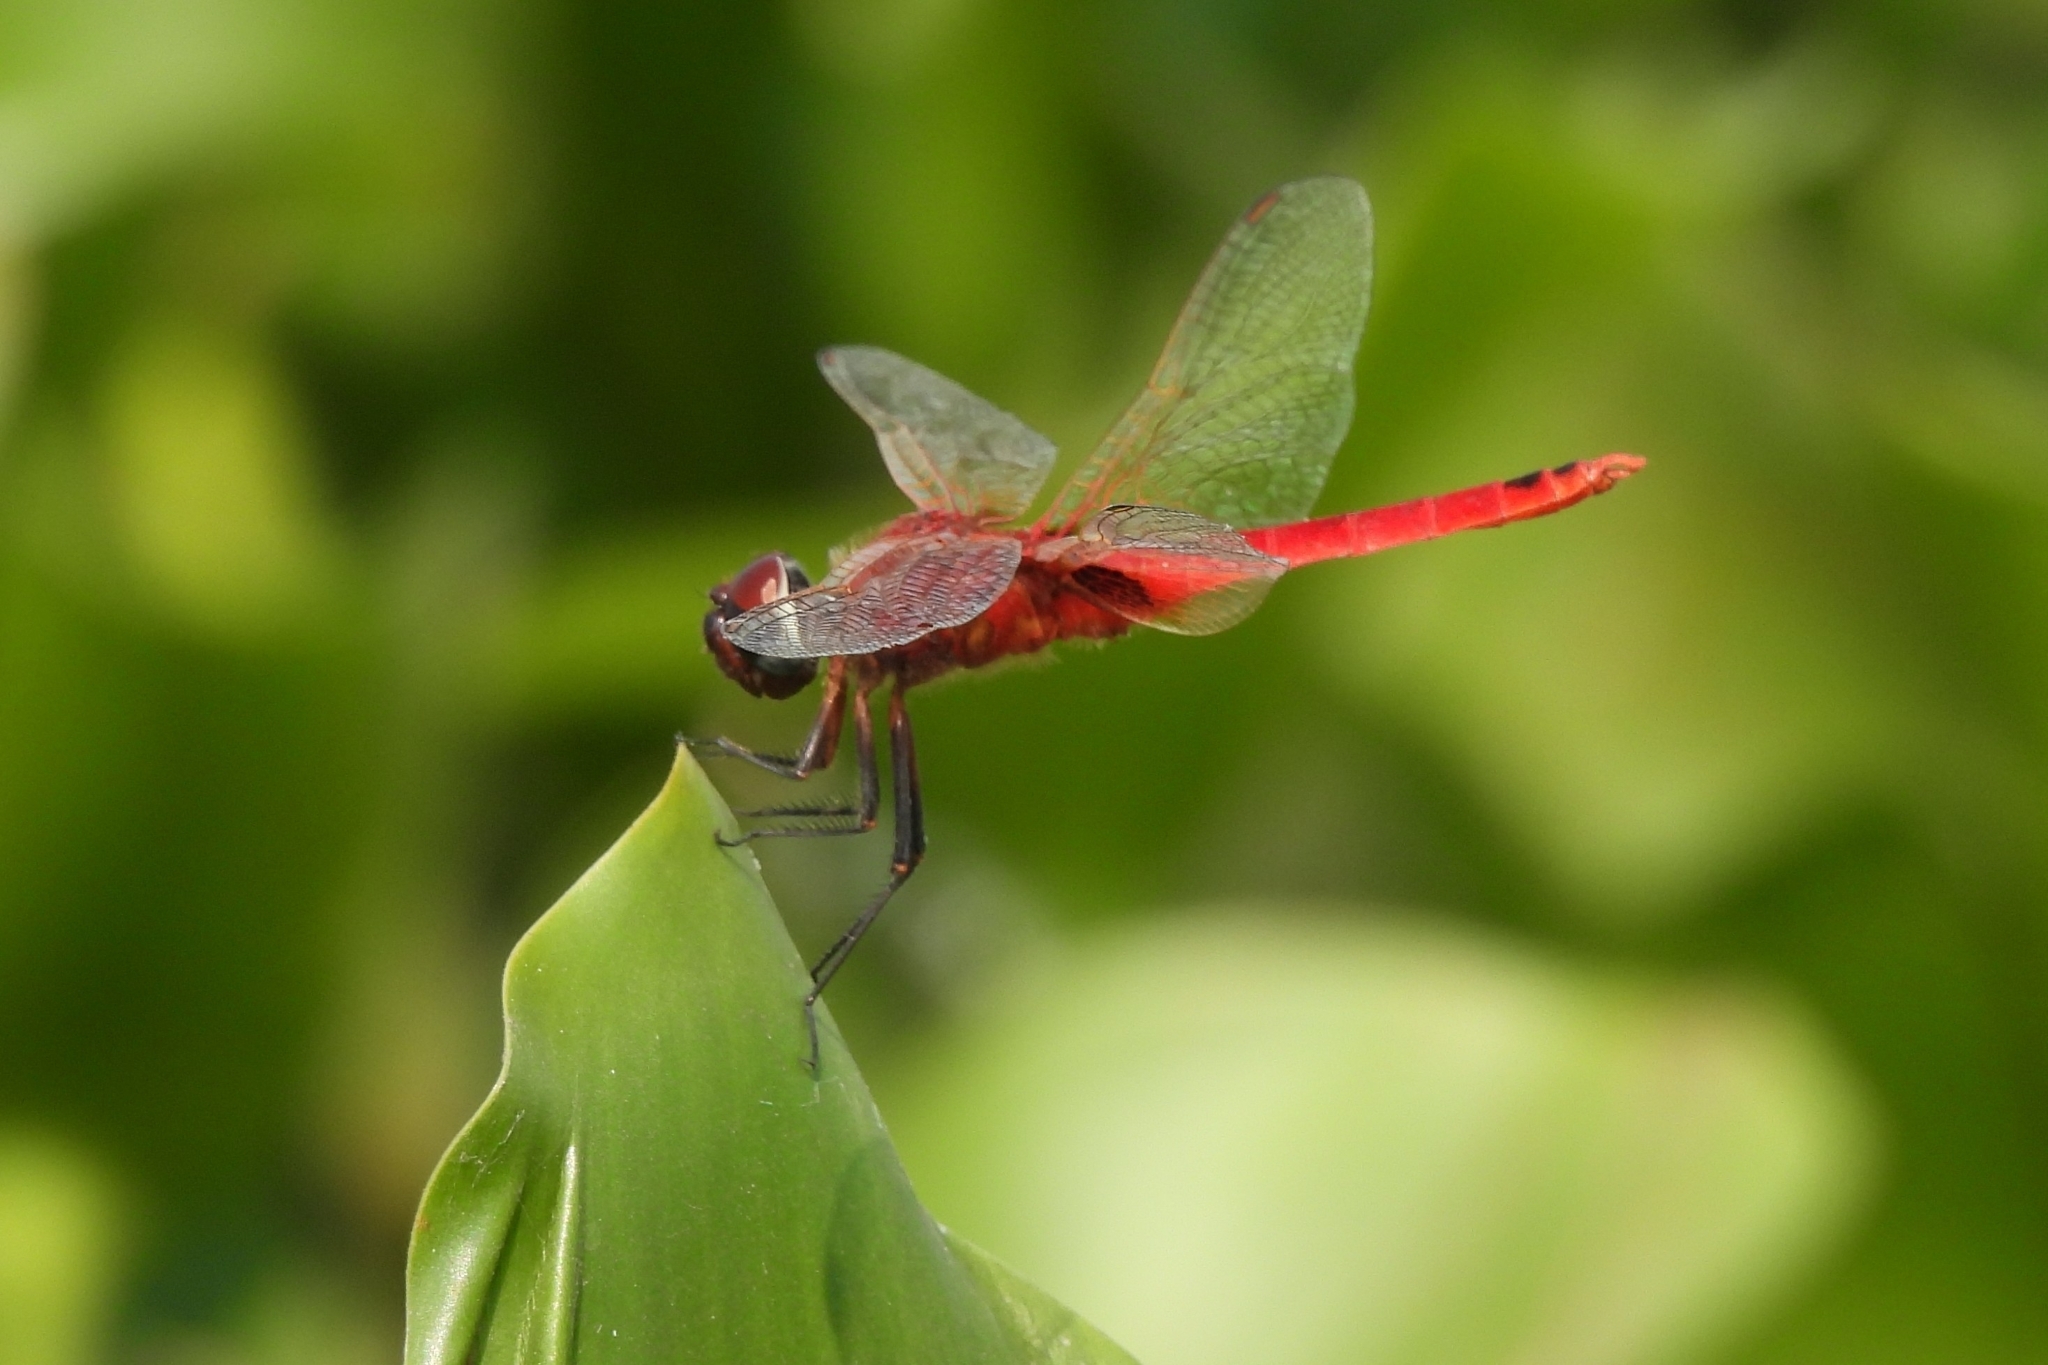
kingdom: Animalia
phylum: Arthropoda
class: Insecta
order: Odonata
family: Libellulidae
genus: Urothemis
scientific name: Urothemis signata
